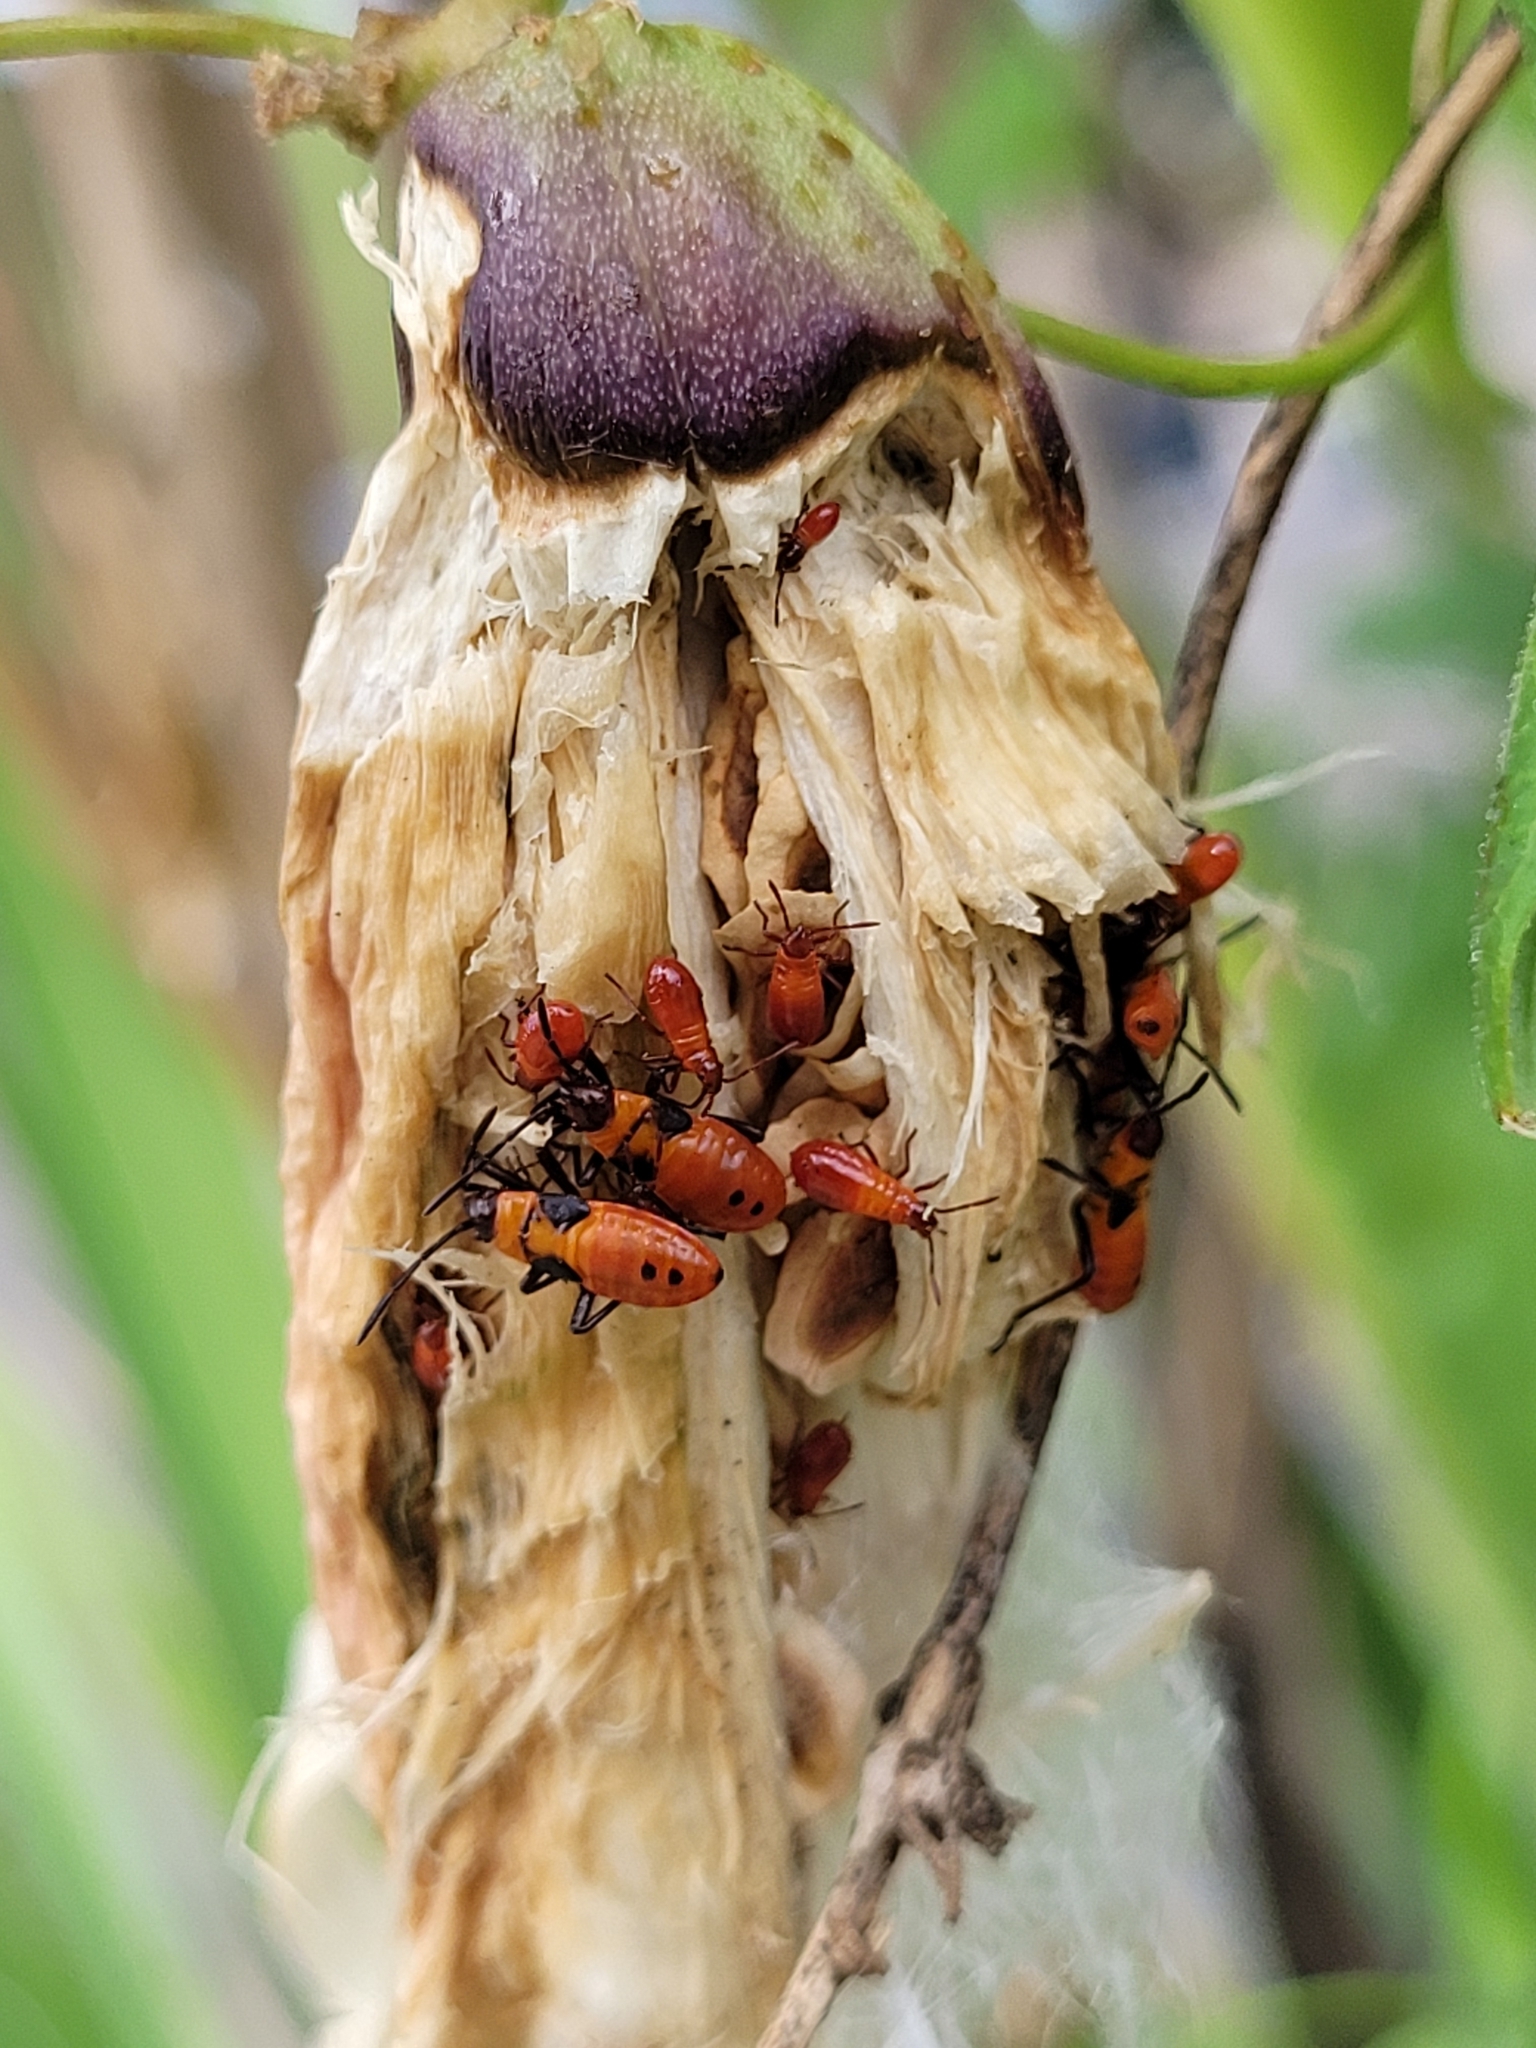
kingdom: Animalia
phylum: Arthropoda
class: Insecta
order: Hemiptera
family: Lygaeidae
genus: Oncopeltus
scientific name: Oncopeltus fasciatus
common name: Large milkweed bug
